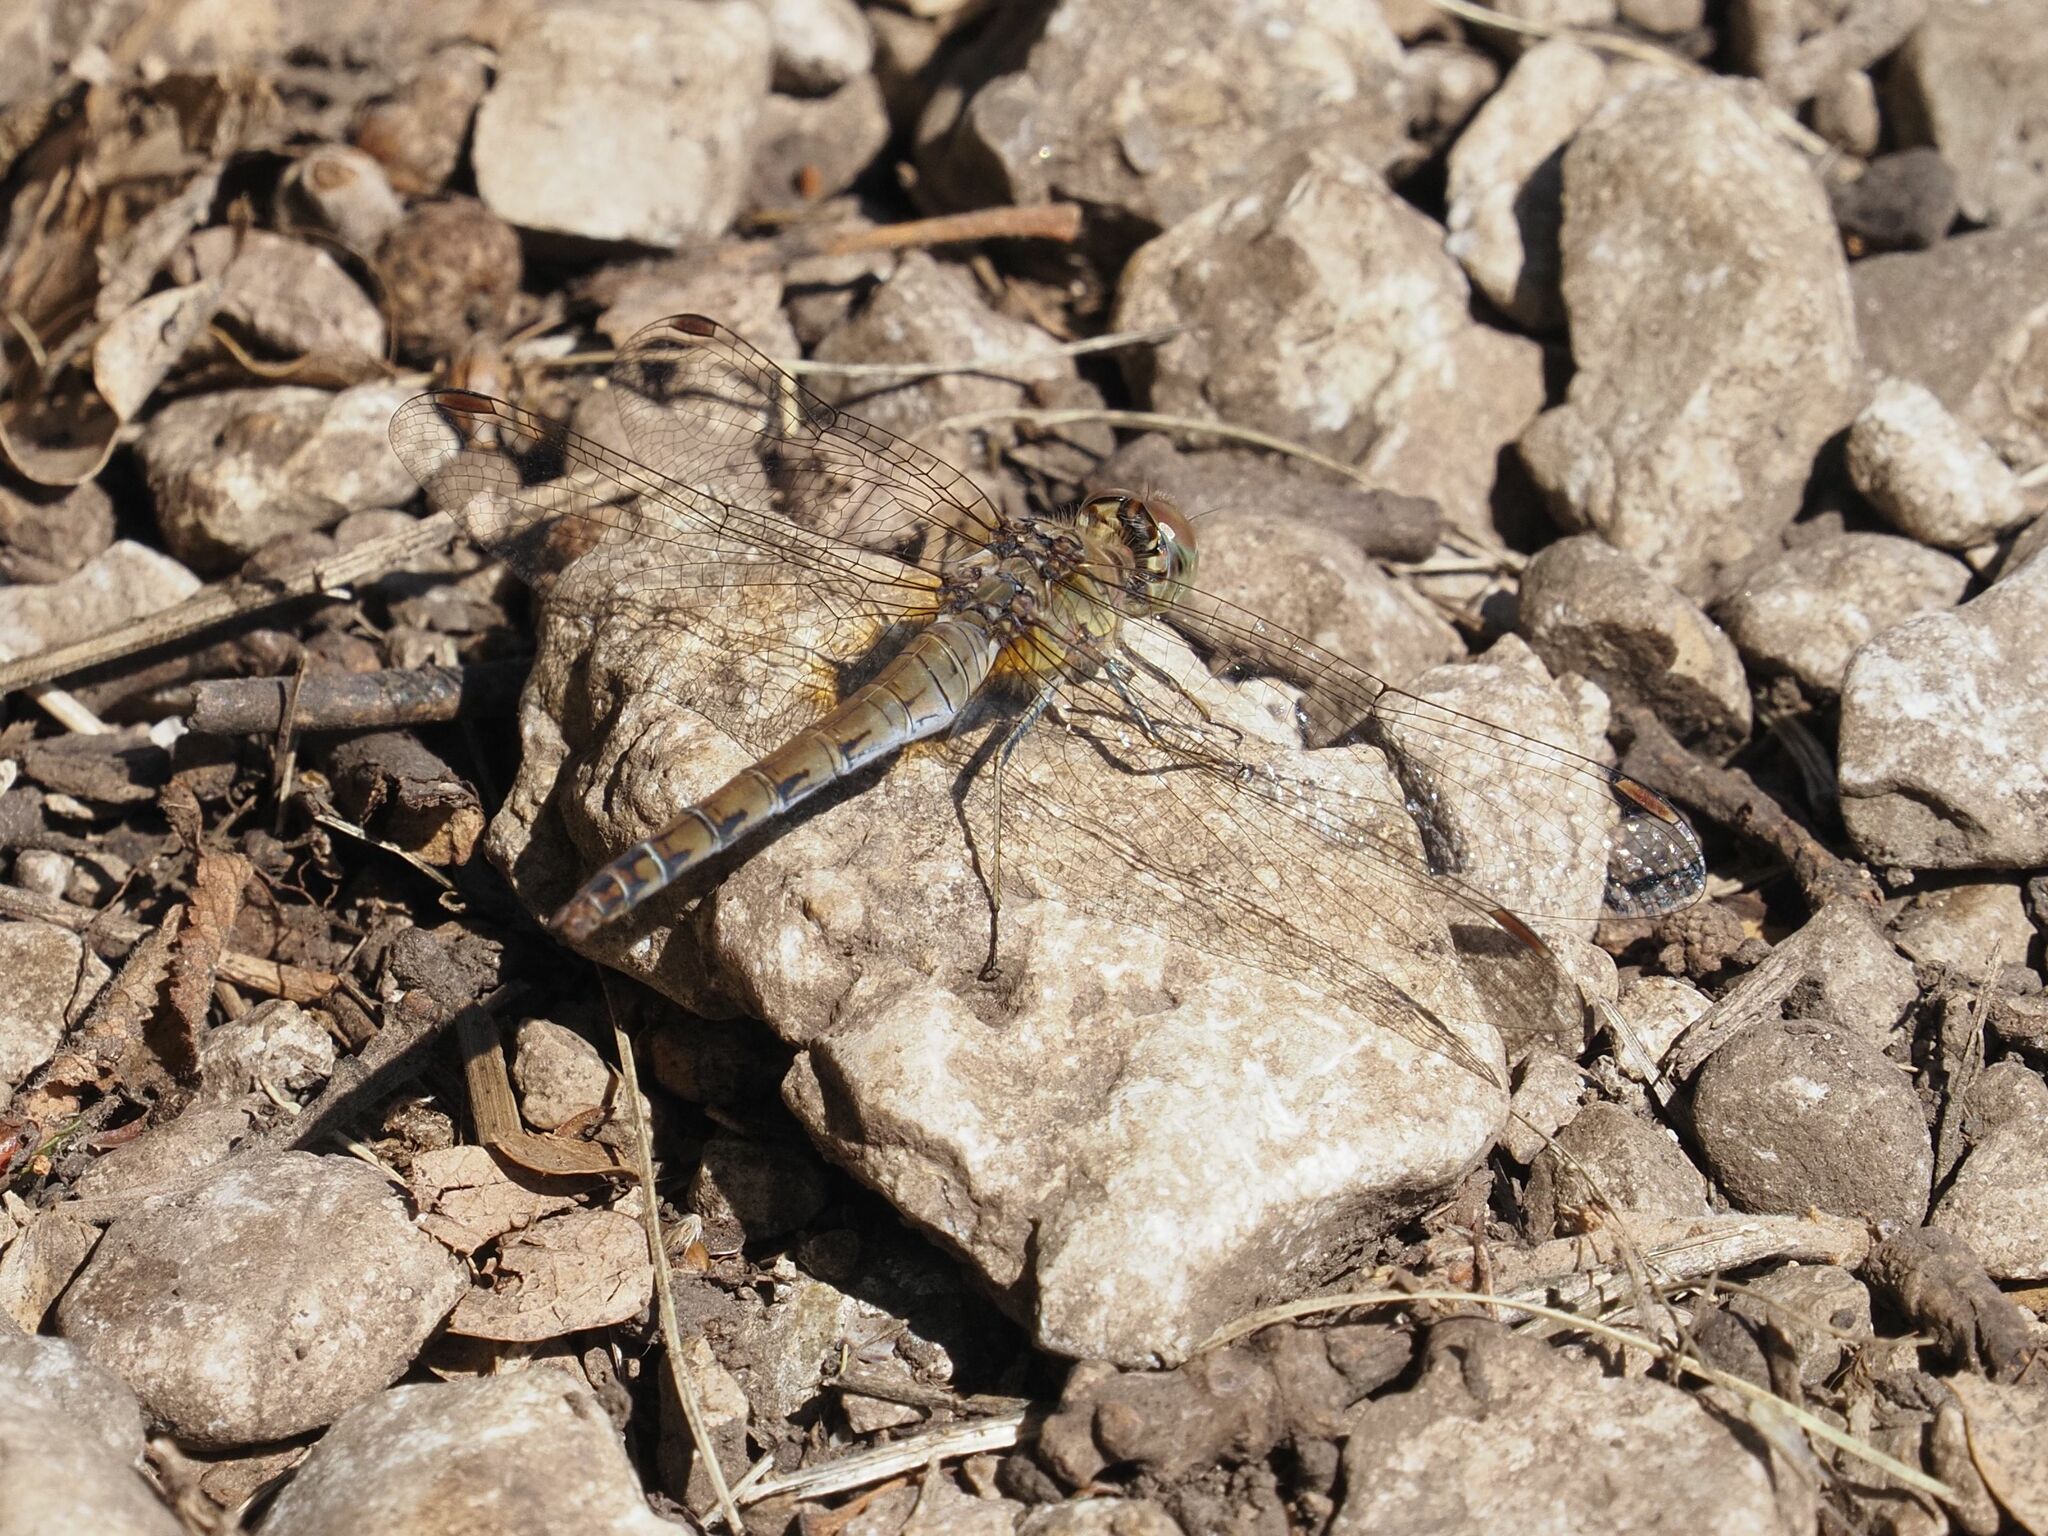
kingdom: Animalia
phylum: Arthropoda
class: Insecta
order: Odonata
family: Libellulidae
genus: Sympetrum
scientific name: Sympetrum striolatum
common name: Common darter
